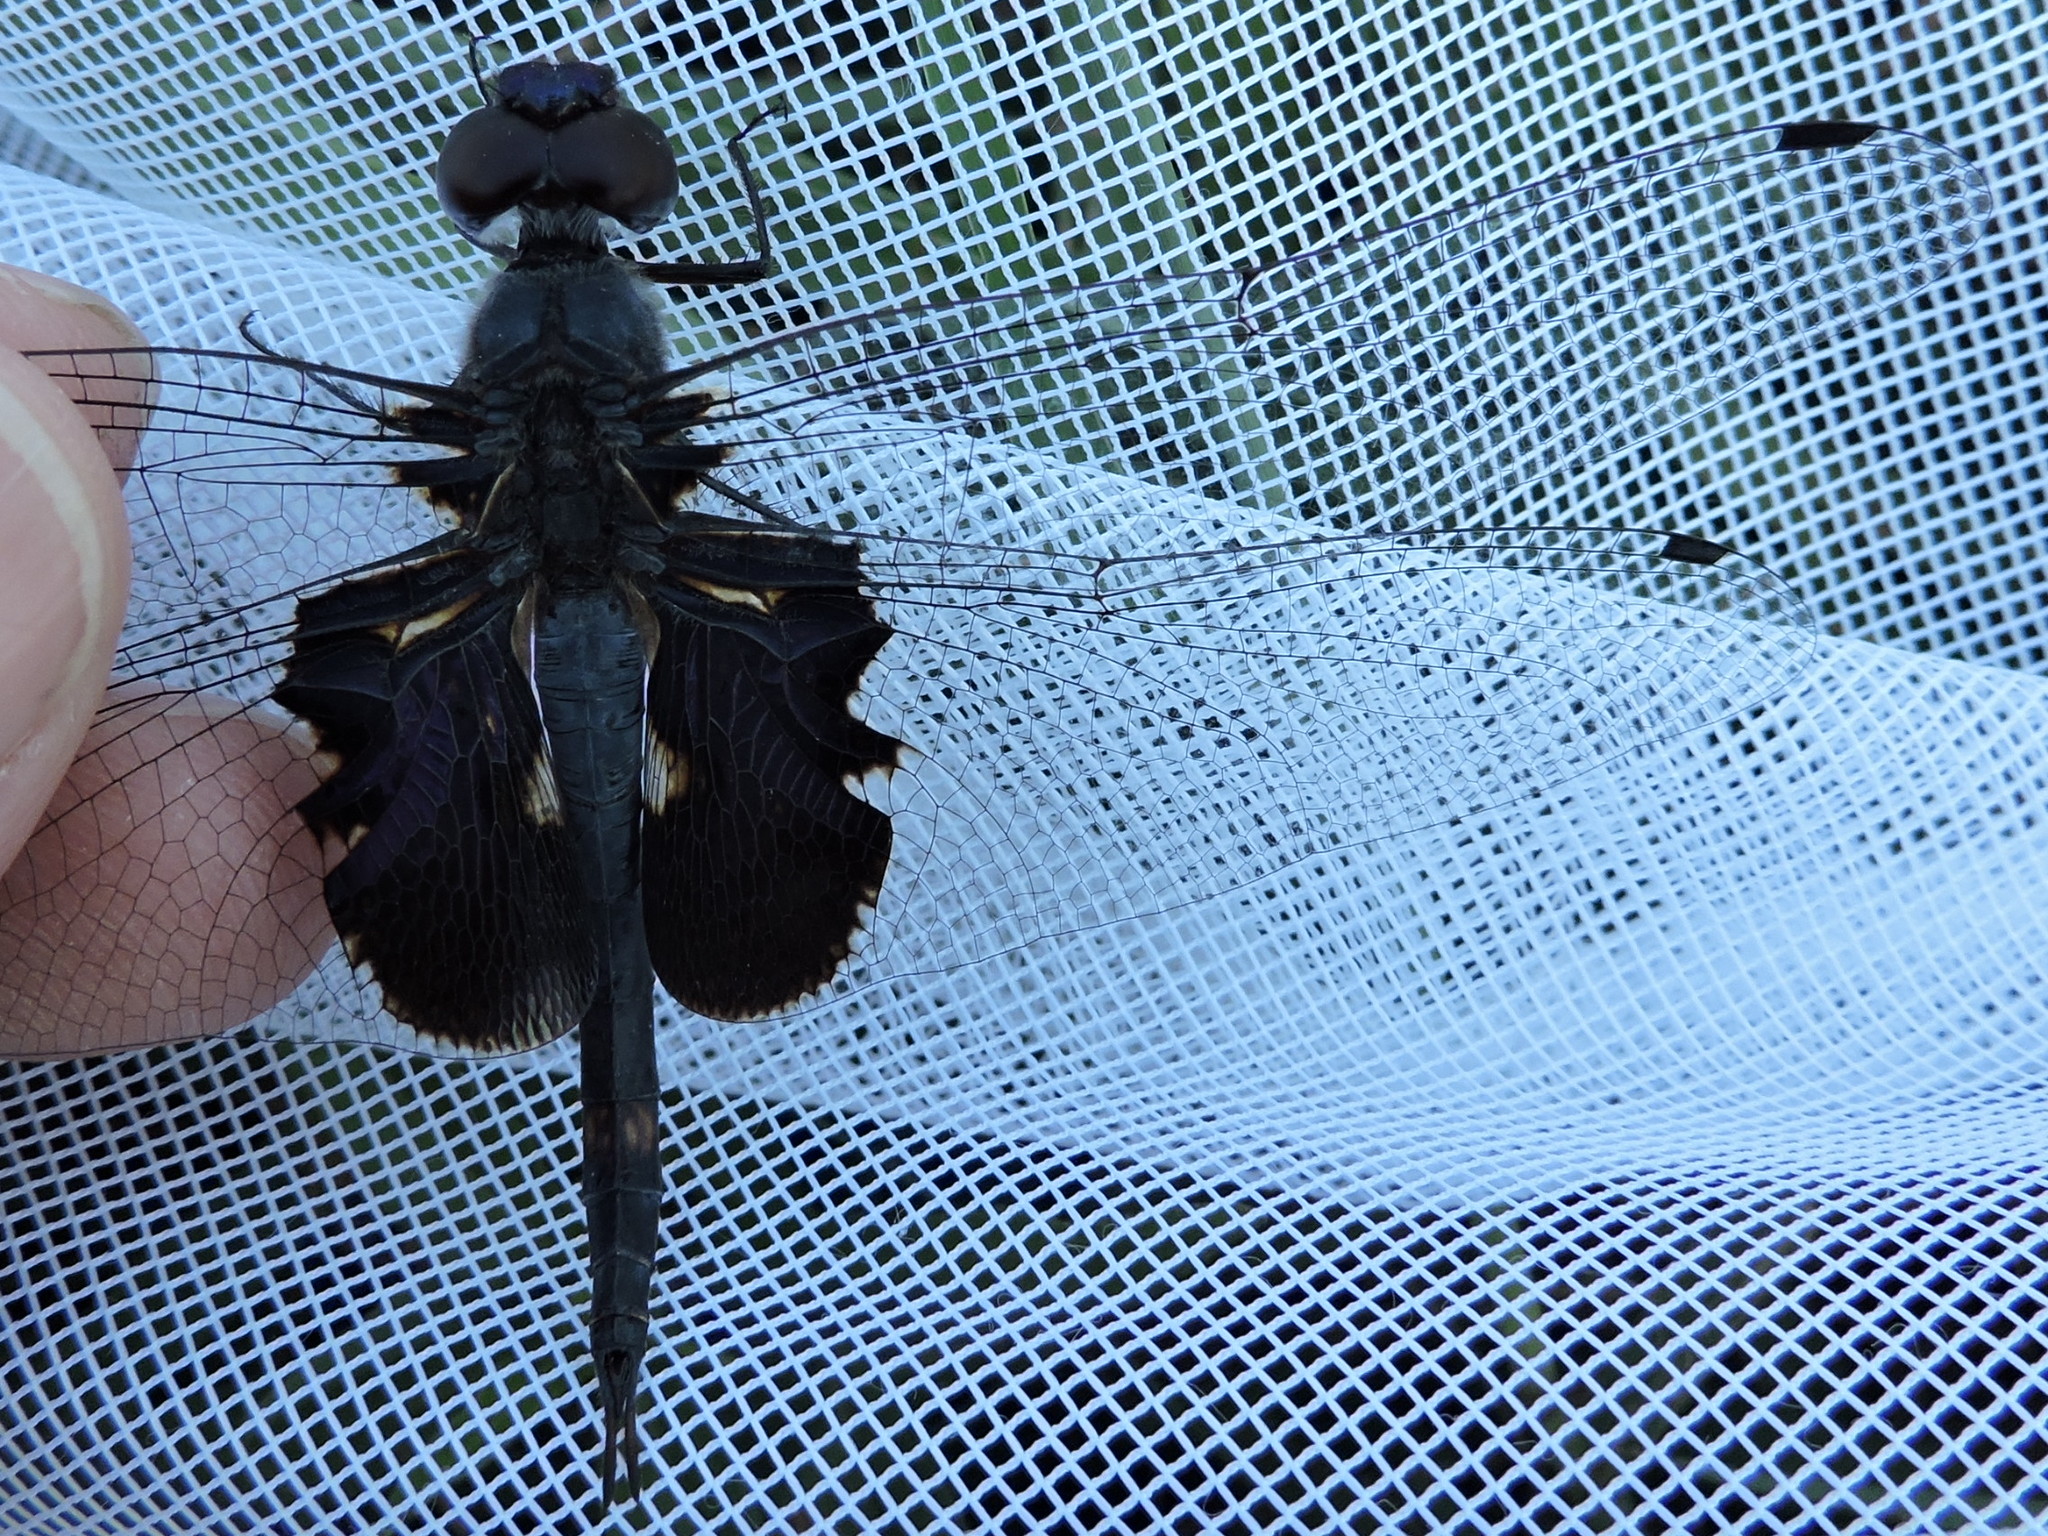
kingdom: Animalia
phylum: Arthropoda
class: Insecta
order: Odonata
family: Libellulidae
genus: Tramea
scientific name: Tramea lacerata
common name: Black saddlebags
